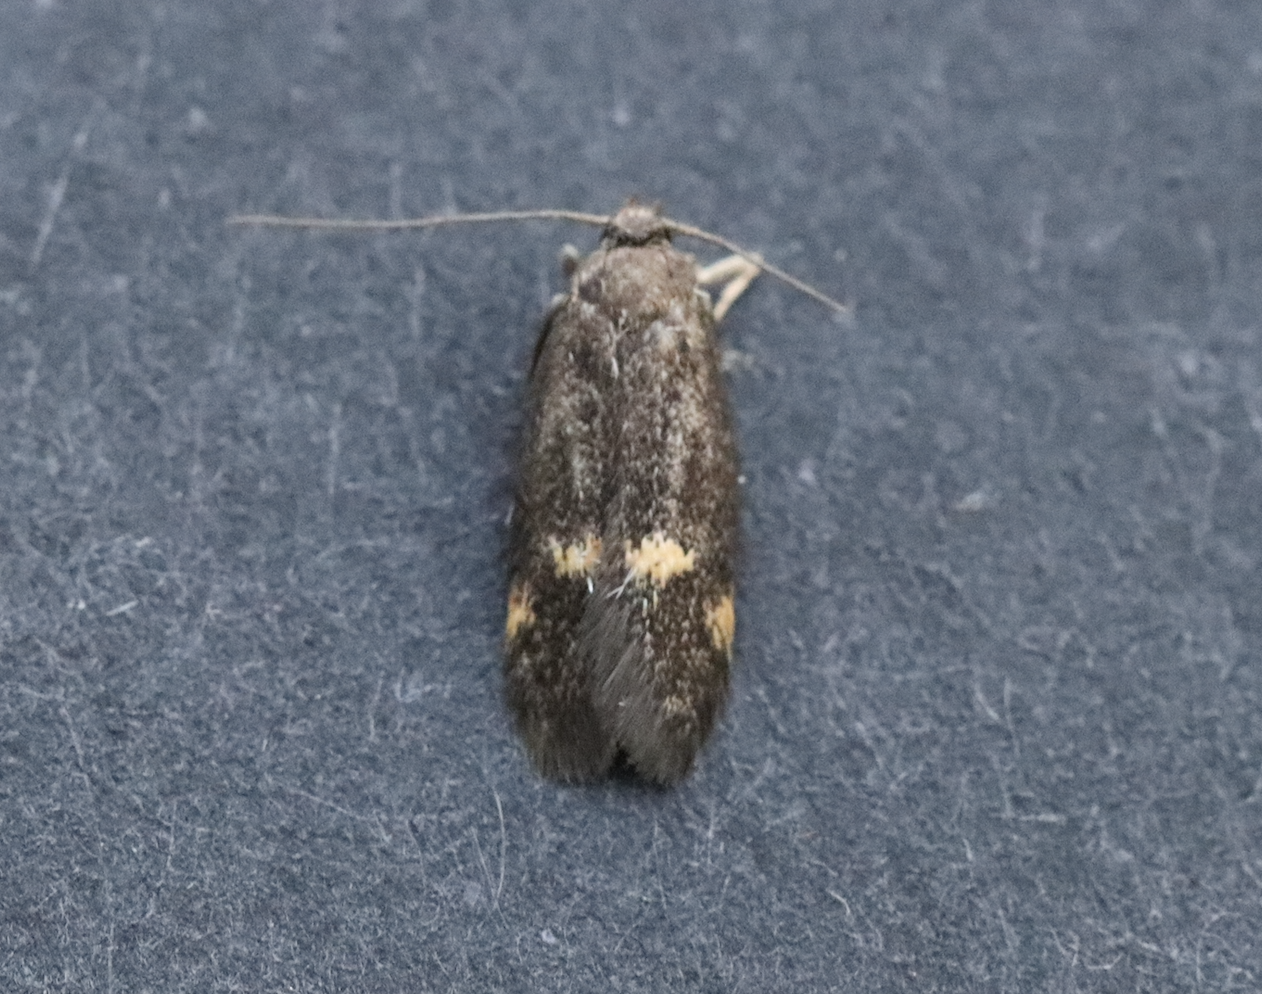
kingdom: Animalia
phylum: Arthropoda
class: Insecta
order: Lepidoptera
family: Oecophoridae
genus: Borkhausenia
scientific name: Borkhausenia minutella
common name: Thatch tubic
